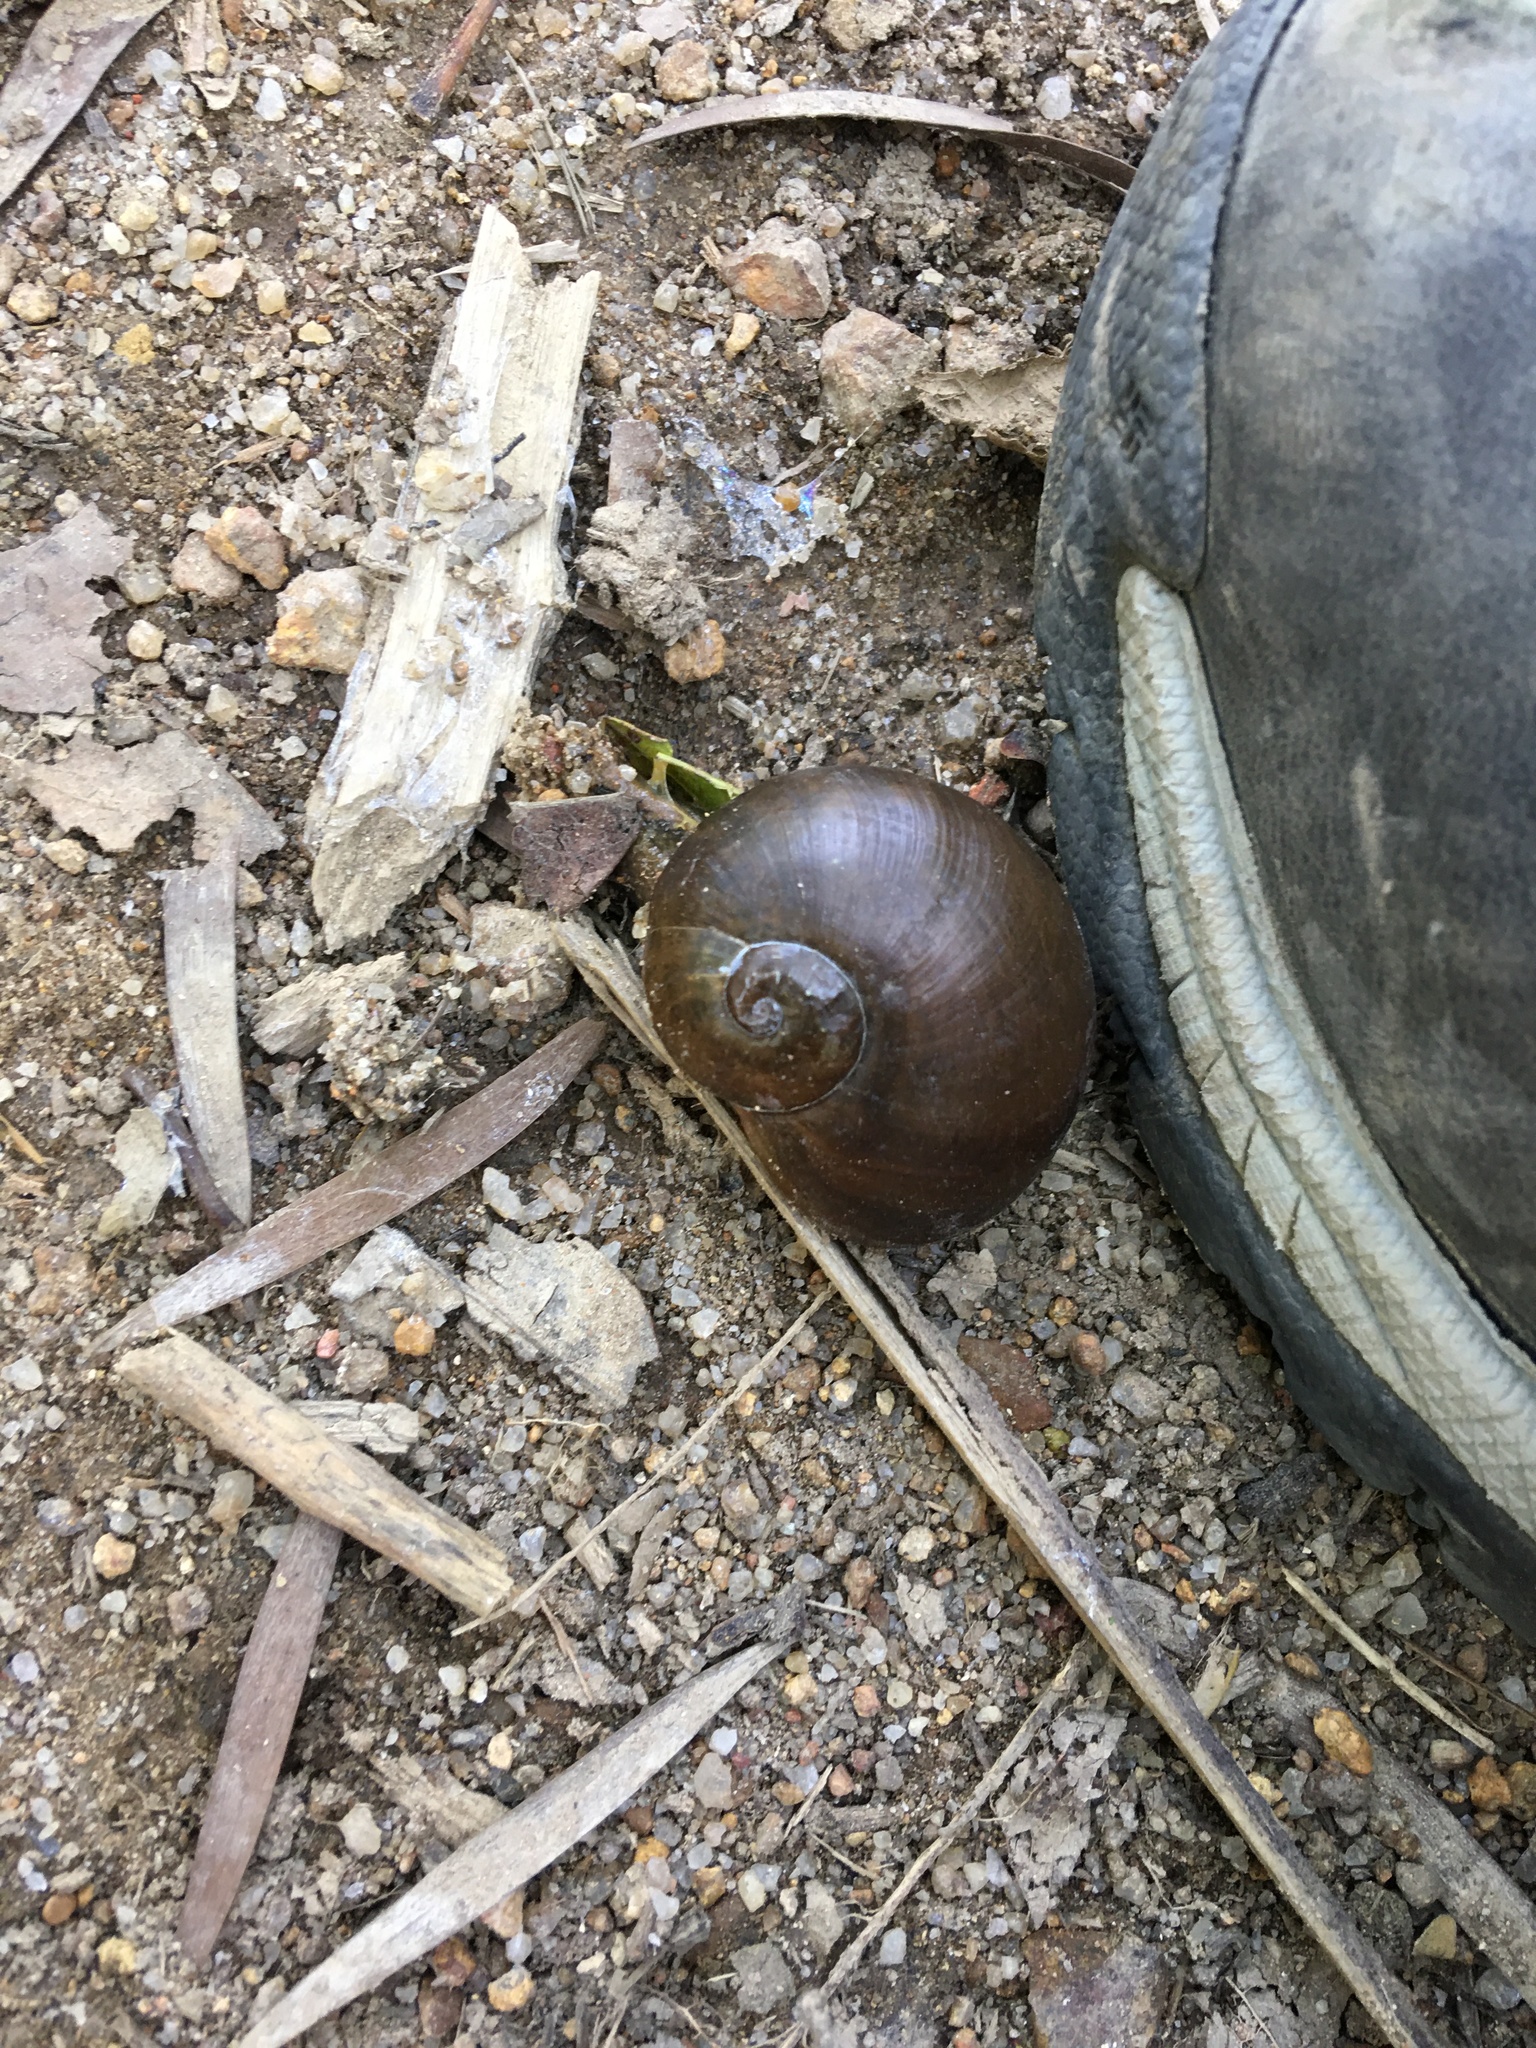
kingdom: Animalia
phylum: Mollusca
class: Gastropoda
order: Stylommatophora
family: Ariophantidae
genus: Megaustenia
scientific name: Megaustenia imperator
